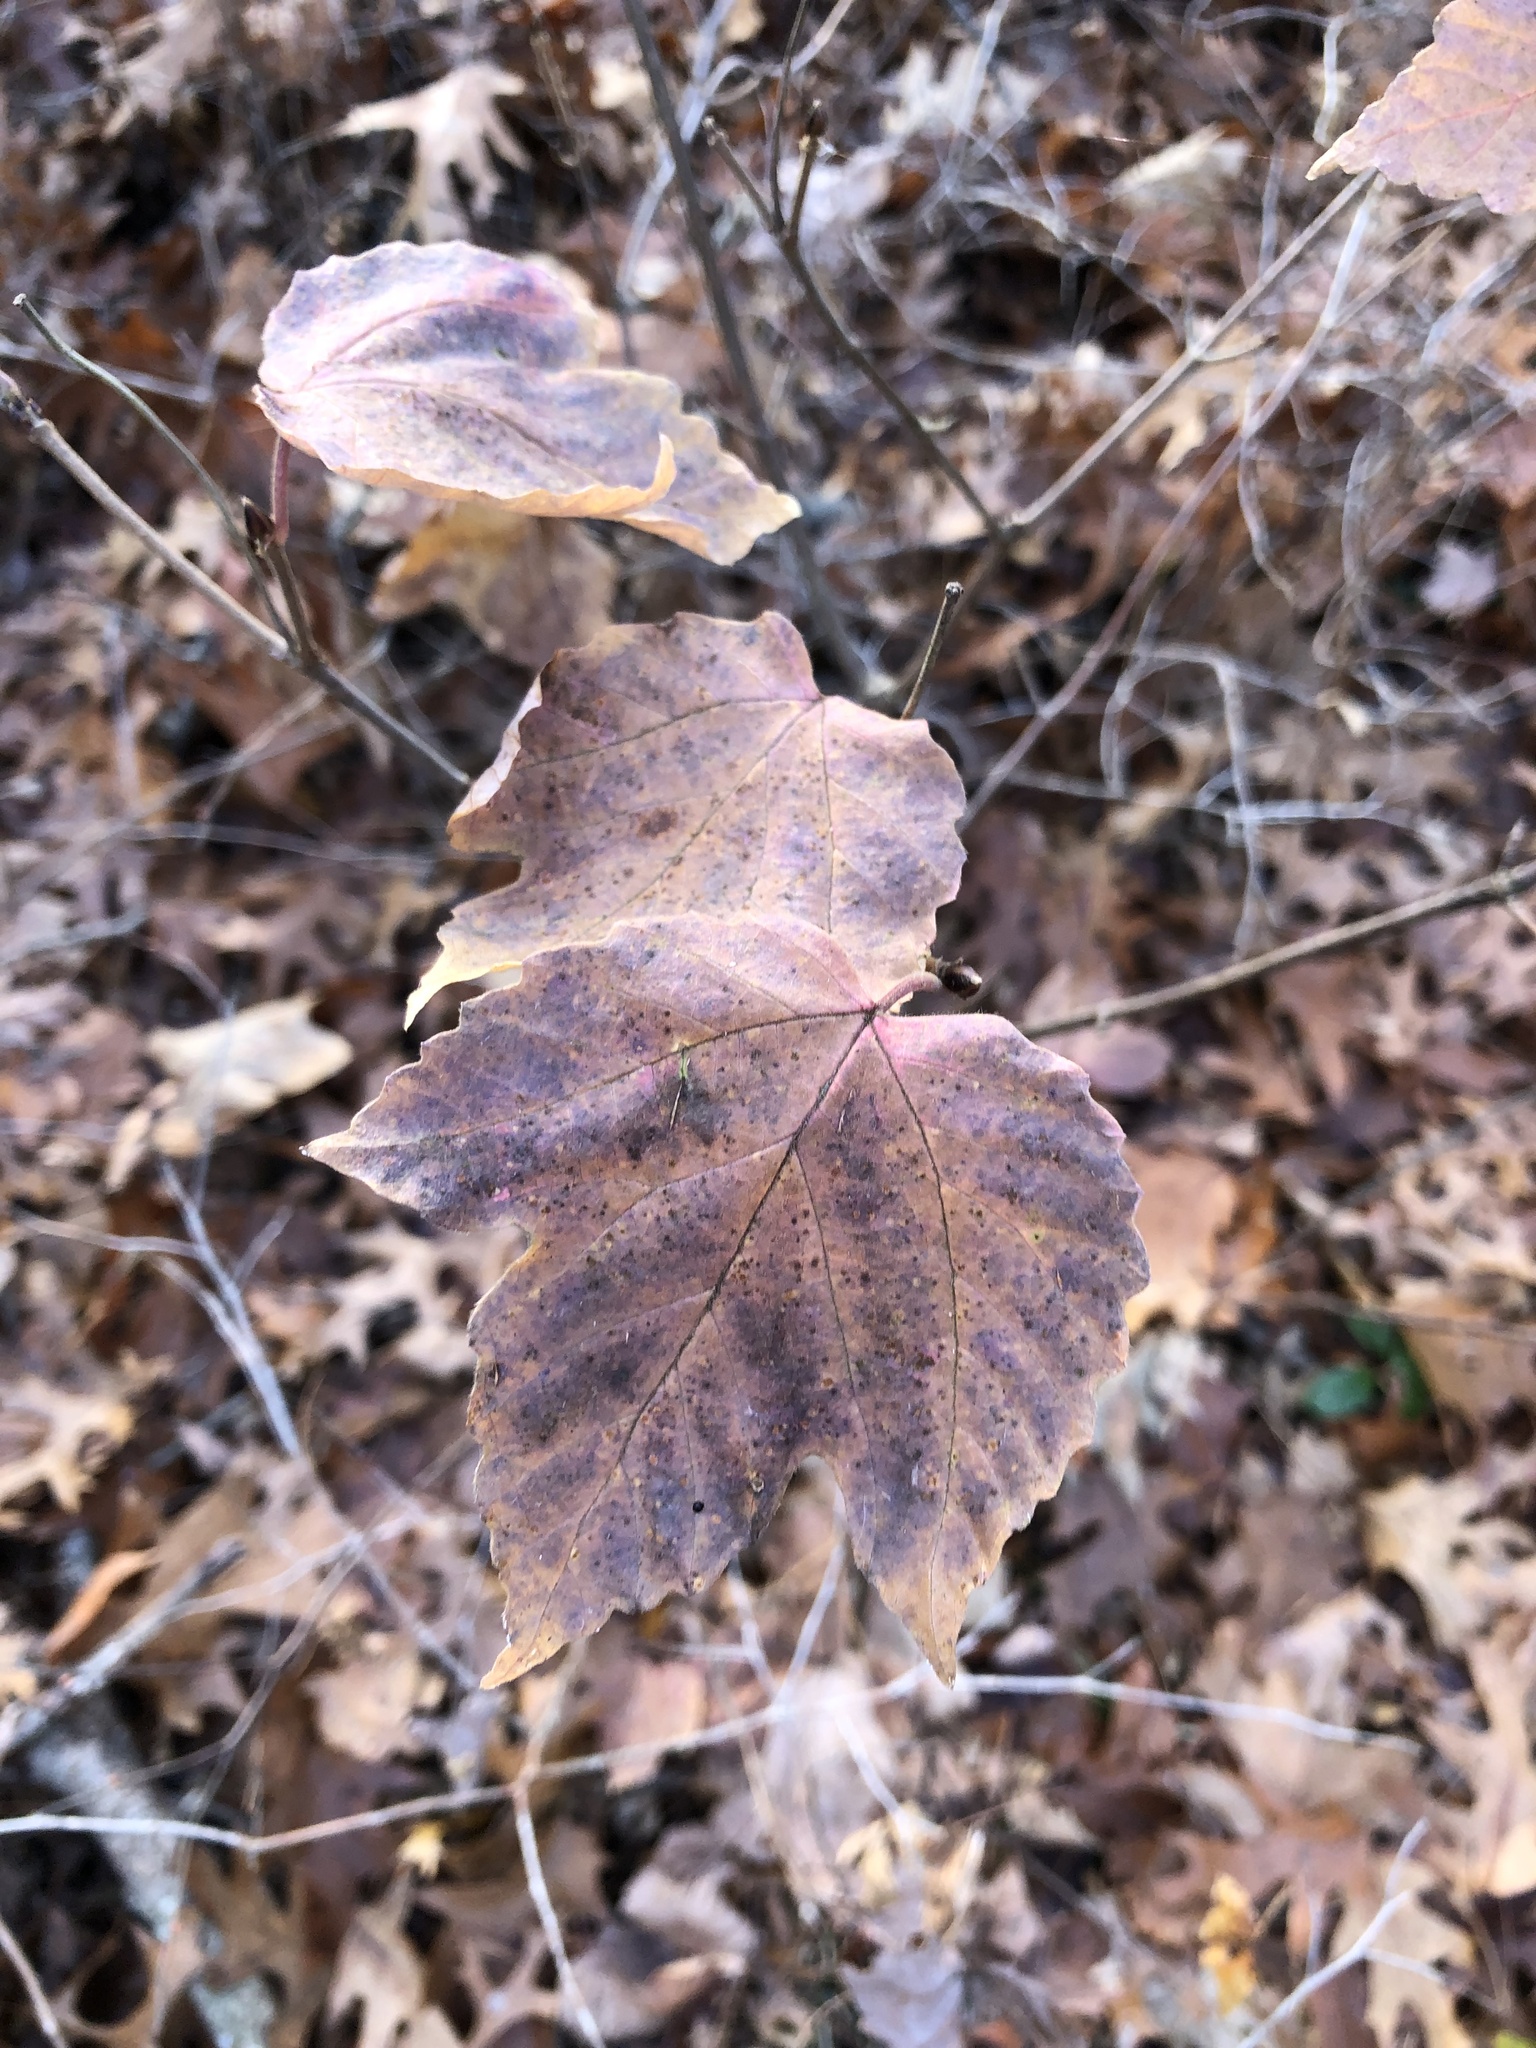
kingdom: Plantae
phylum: Tracheophyta
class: Magnoliopsida
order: Dipsacales
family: Viburnaceae
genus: Viburnum
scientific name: Viburnum acerifolium
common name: Dockmackie
